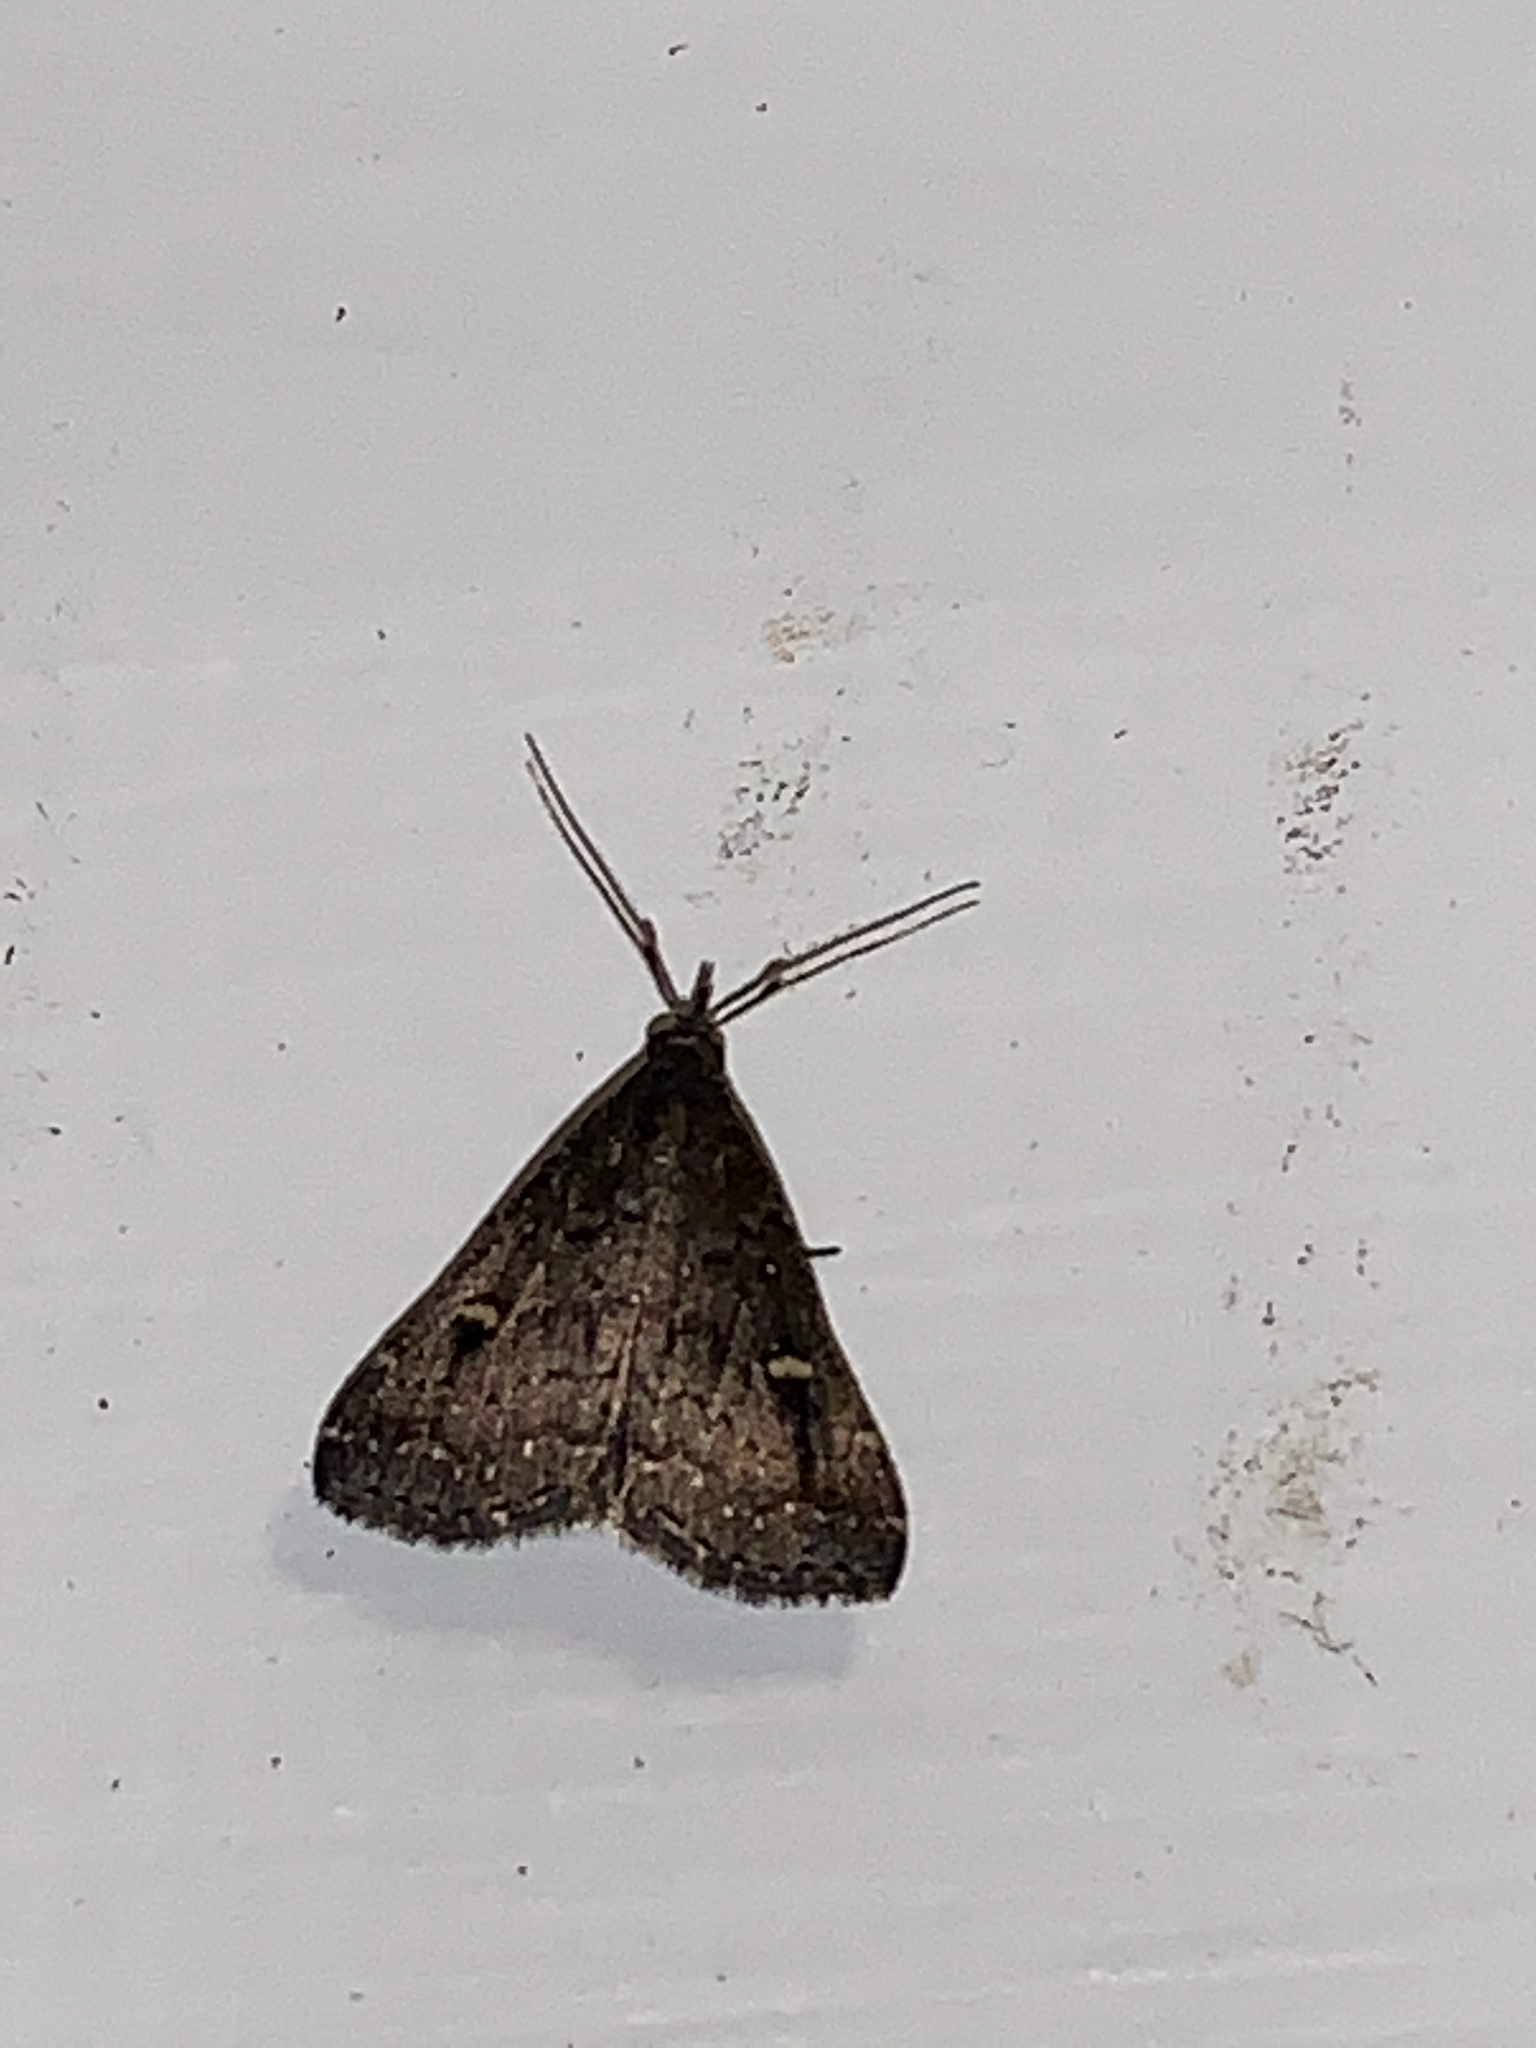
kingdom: Animalia
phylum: Arthropoda
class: Insecta
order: Lepidoptera
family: Erebidae
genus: Tetanolita
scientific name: Tetanolita mynesalis
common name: Smoky tetanolita moth
